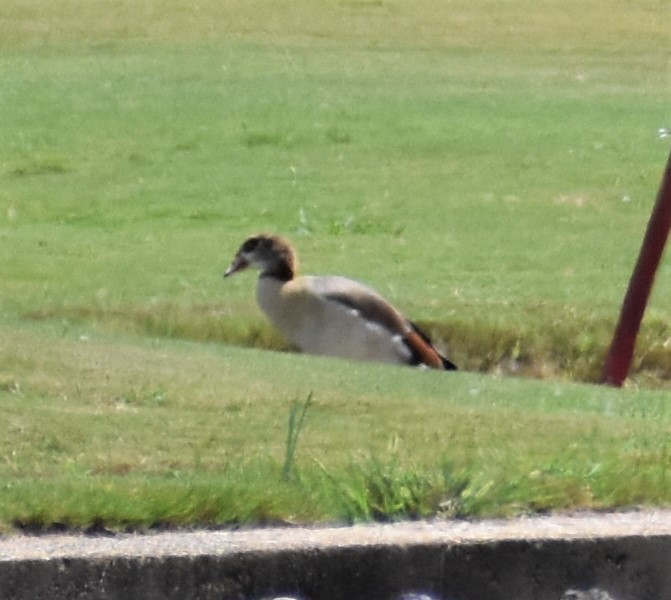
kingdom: Animalia
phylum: Chordata
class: Aves
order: Anseriformes
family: Anatidae
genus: Alopochen
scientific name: Alopochen aegyptiaca
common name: Egyptian goose
